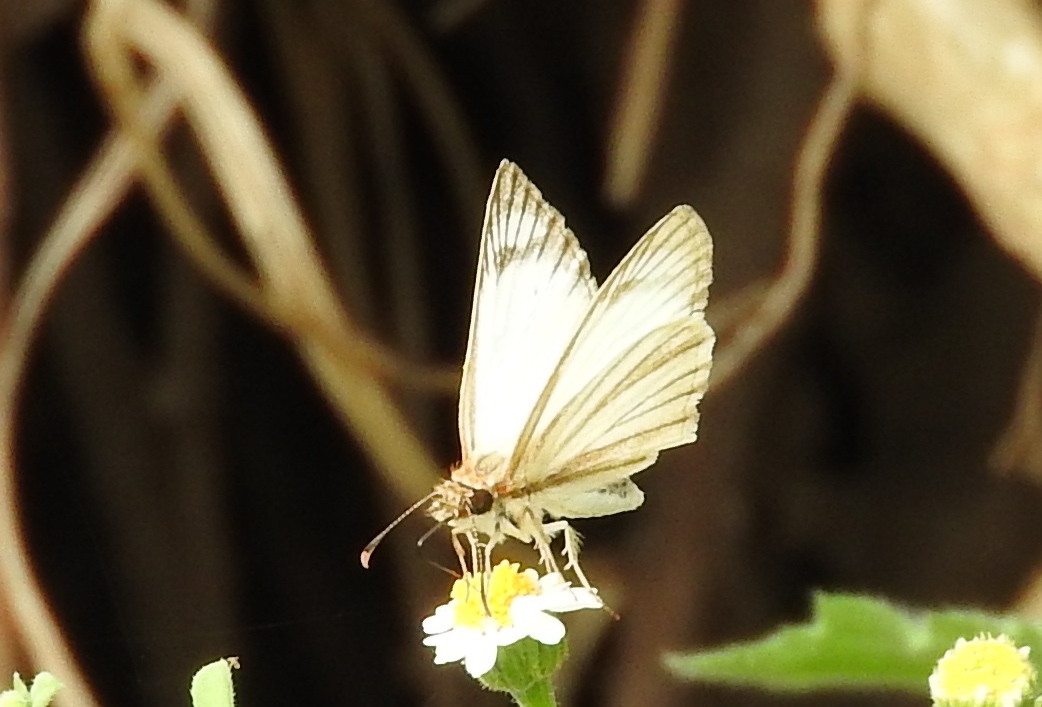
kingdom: Animalia
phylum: Arthropoda
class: Insecta
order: Lepidoptera
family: Hesperiidae
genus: Heliopetes
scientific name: Heliopetes arsalte
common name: Veined white-skipper
